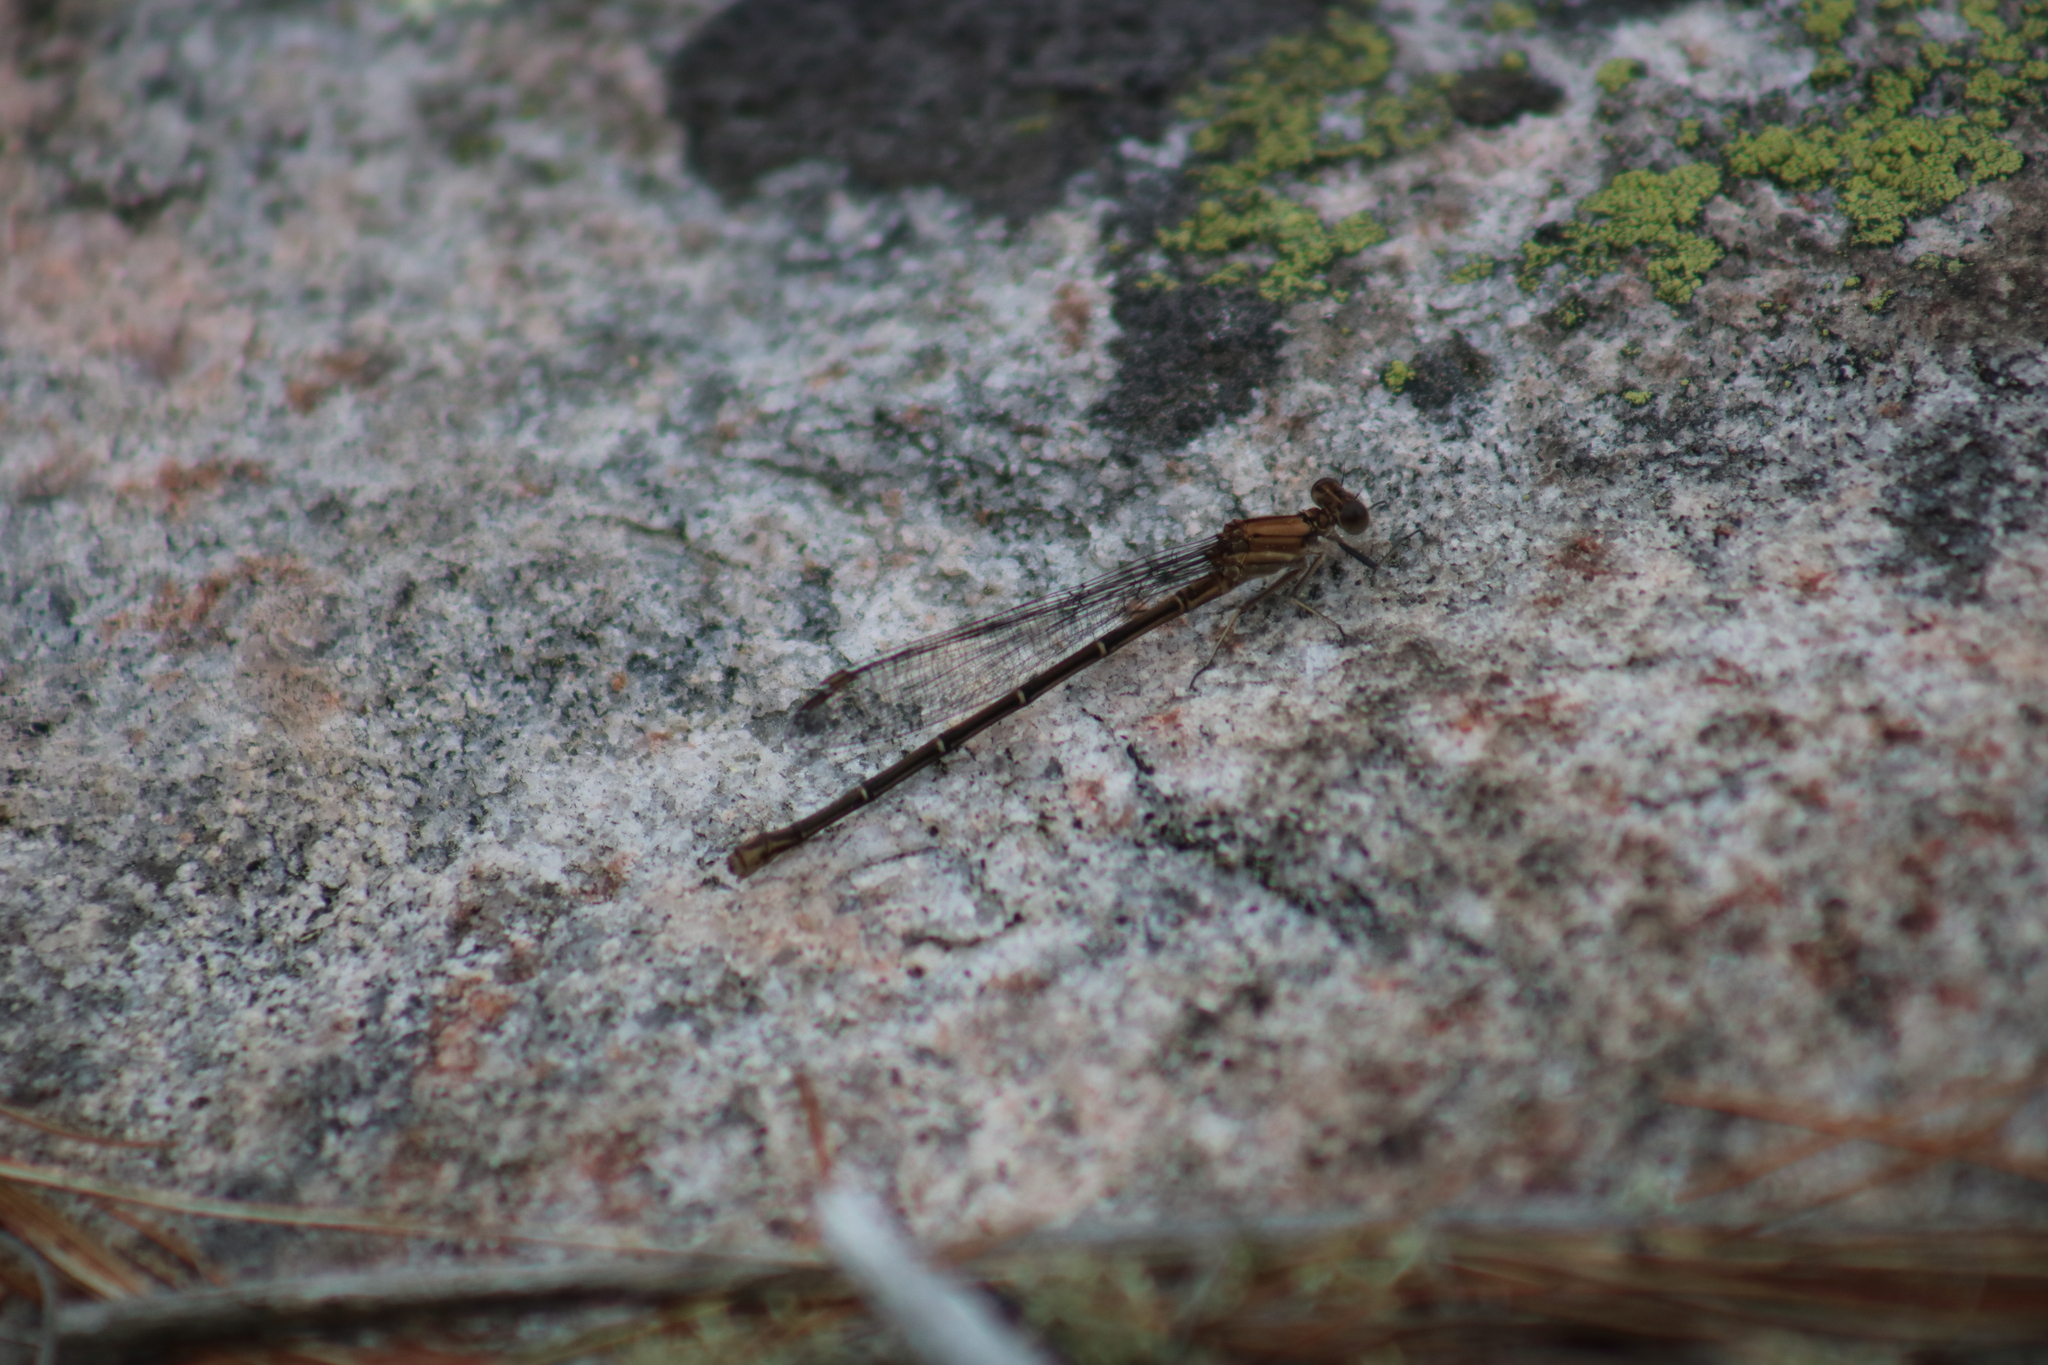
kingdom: Animalia
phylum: Arthropoda
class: Insecta
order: Odonata
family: Coenagrionidae
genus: Argia
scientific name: Argia moesta
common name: Powdered dancer
